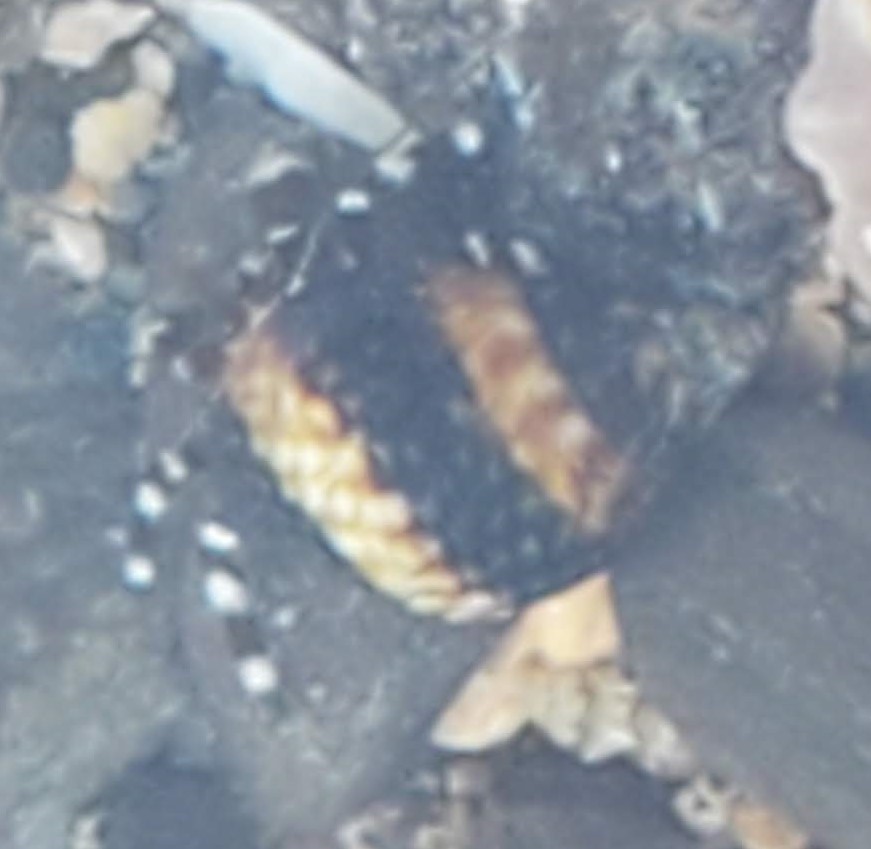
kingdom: Animalia
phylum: Mollusca
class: Gastropoda
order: Littorinimorpha
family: Littorinidae
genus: Littorina
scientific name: Littorina scutulata
